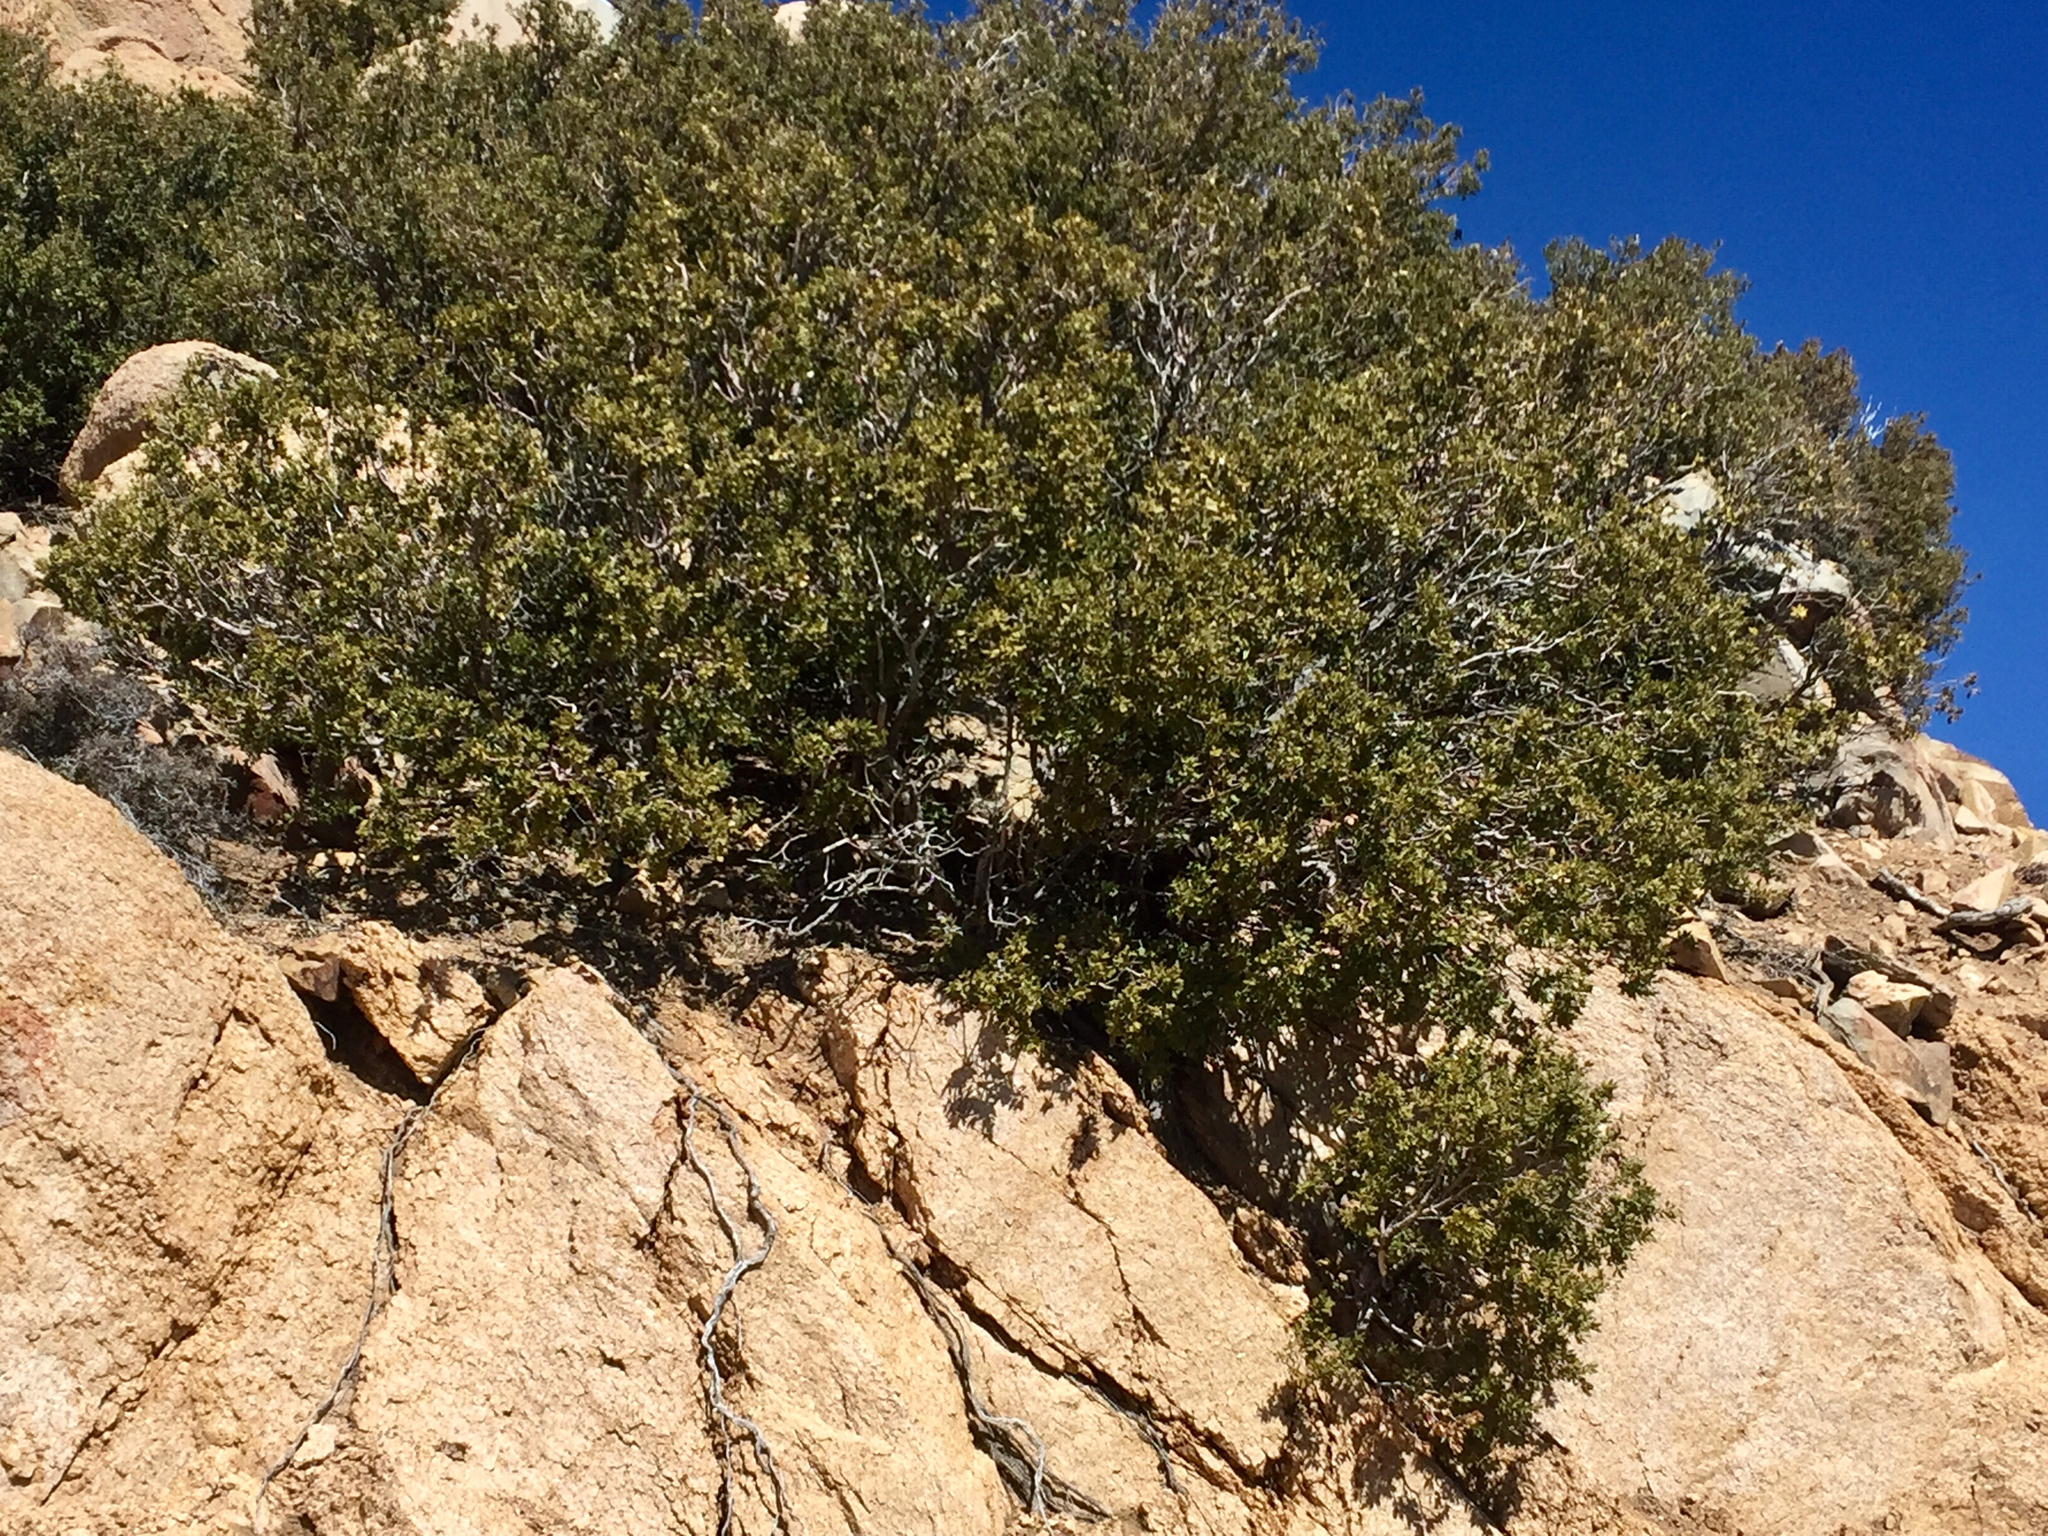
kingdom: Plantae
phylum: Tracheophyta
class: Magnoliopsida
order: Fagales
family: Fagaceae
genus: Quercus
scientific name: Quercus palmeri
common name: Dunn oak
